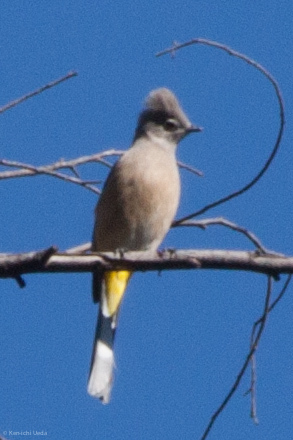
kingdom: Animalia
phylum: Chordata
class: Aves
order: Passeriformes
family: Ptilogonatidae
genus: Ptilogonys
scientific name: Ptilogonys cinereus
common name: Gray silky-flycatcher
